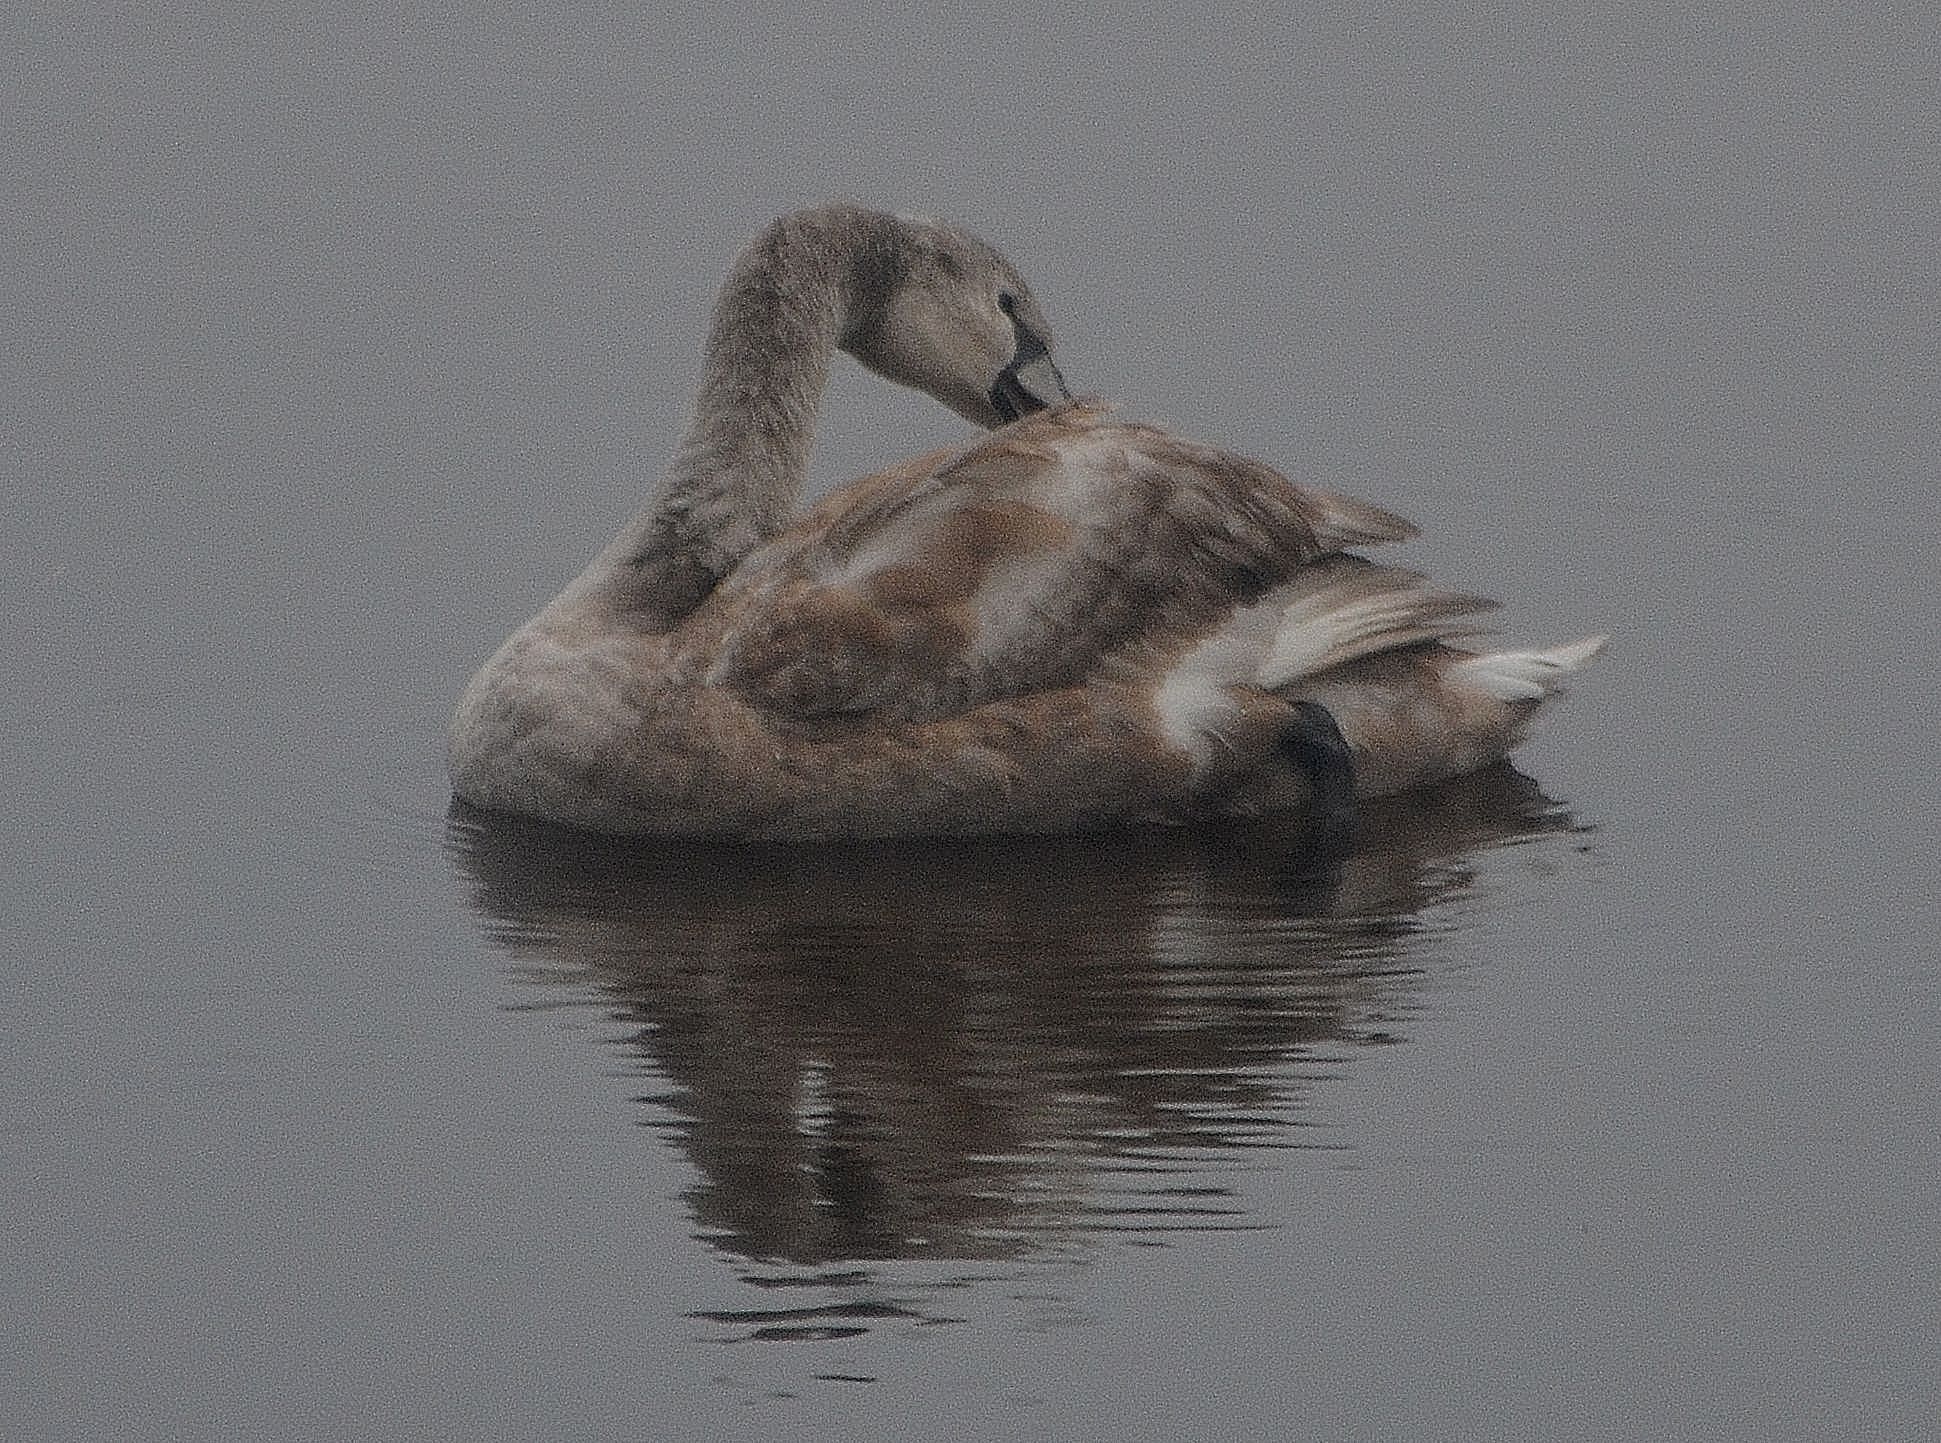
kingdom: Animalia
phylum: Chordata
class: Aves
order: Anseriformes
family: Anatidae
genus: Cygnus
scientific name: Cygnus olor
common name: Mute swan
